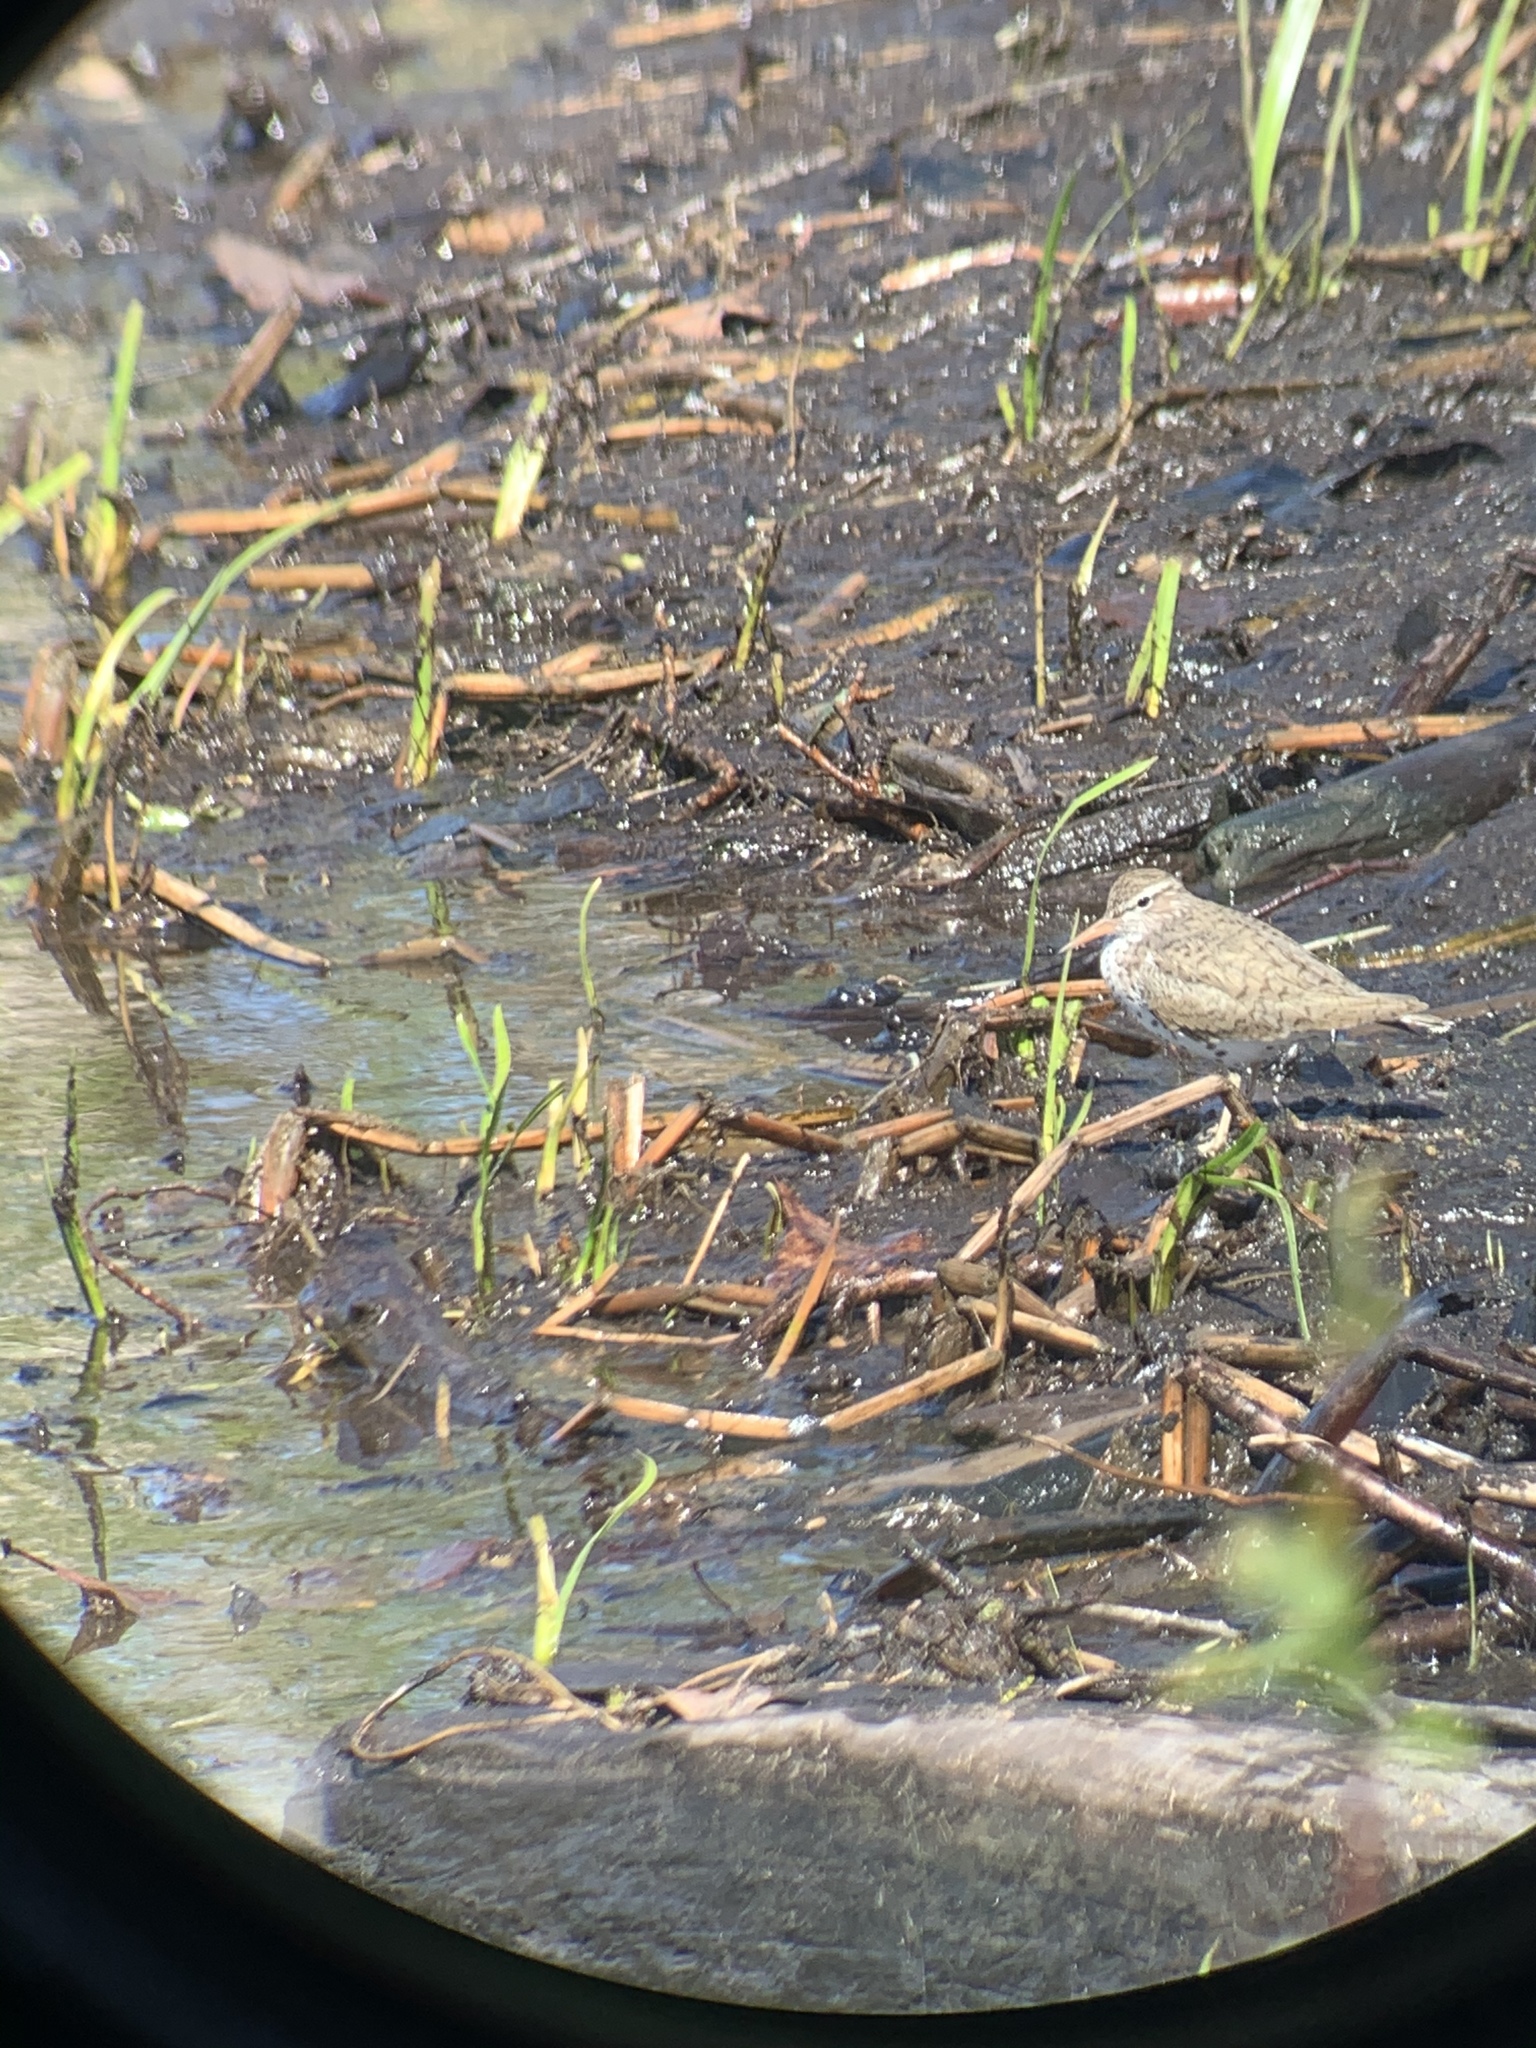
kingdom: Animalia
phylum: Chordata
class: Aves
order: Charadriiformes
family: Scolopacidae
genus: Actitis
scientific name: Actitis macularius
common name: Spotted sandpiper
